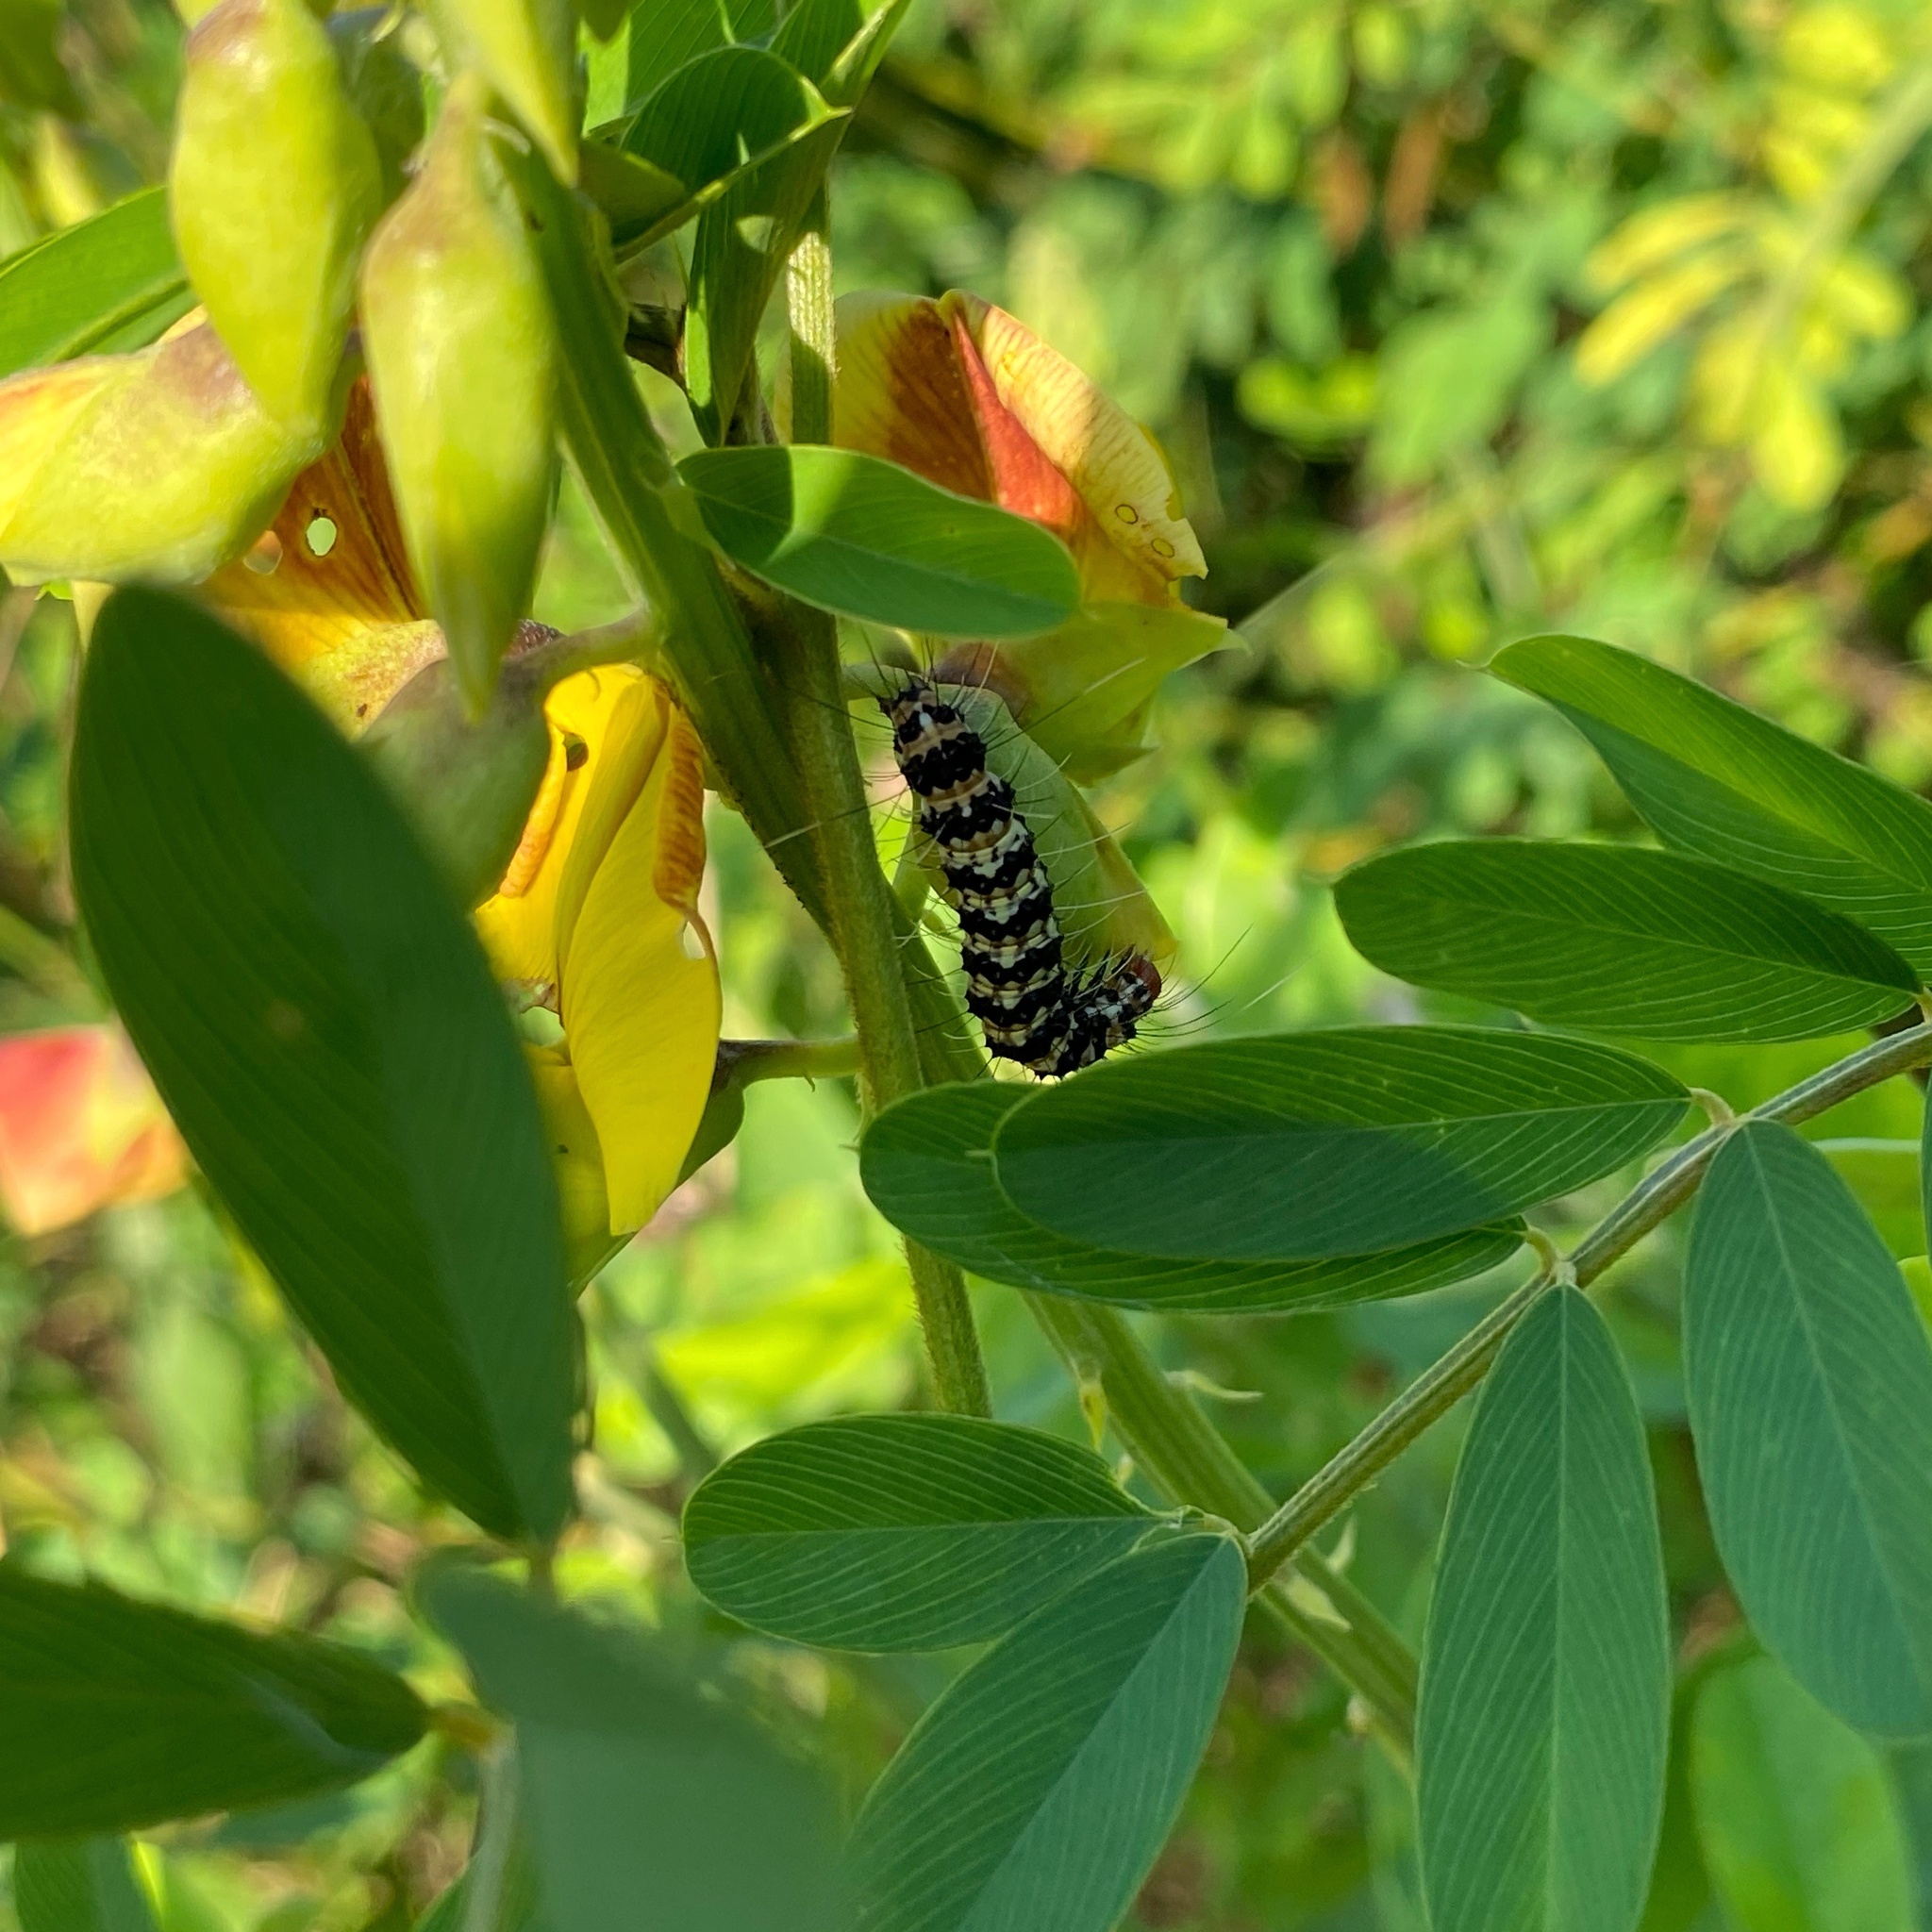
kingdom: Animalia
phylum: Arthropoda
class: Insecta
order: Lepidoptera
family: Erebidae
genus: Utetheisa
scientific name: Utetheisa ornatrix
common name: Beautiful utetheisa
